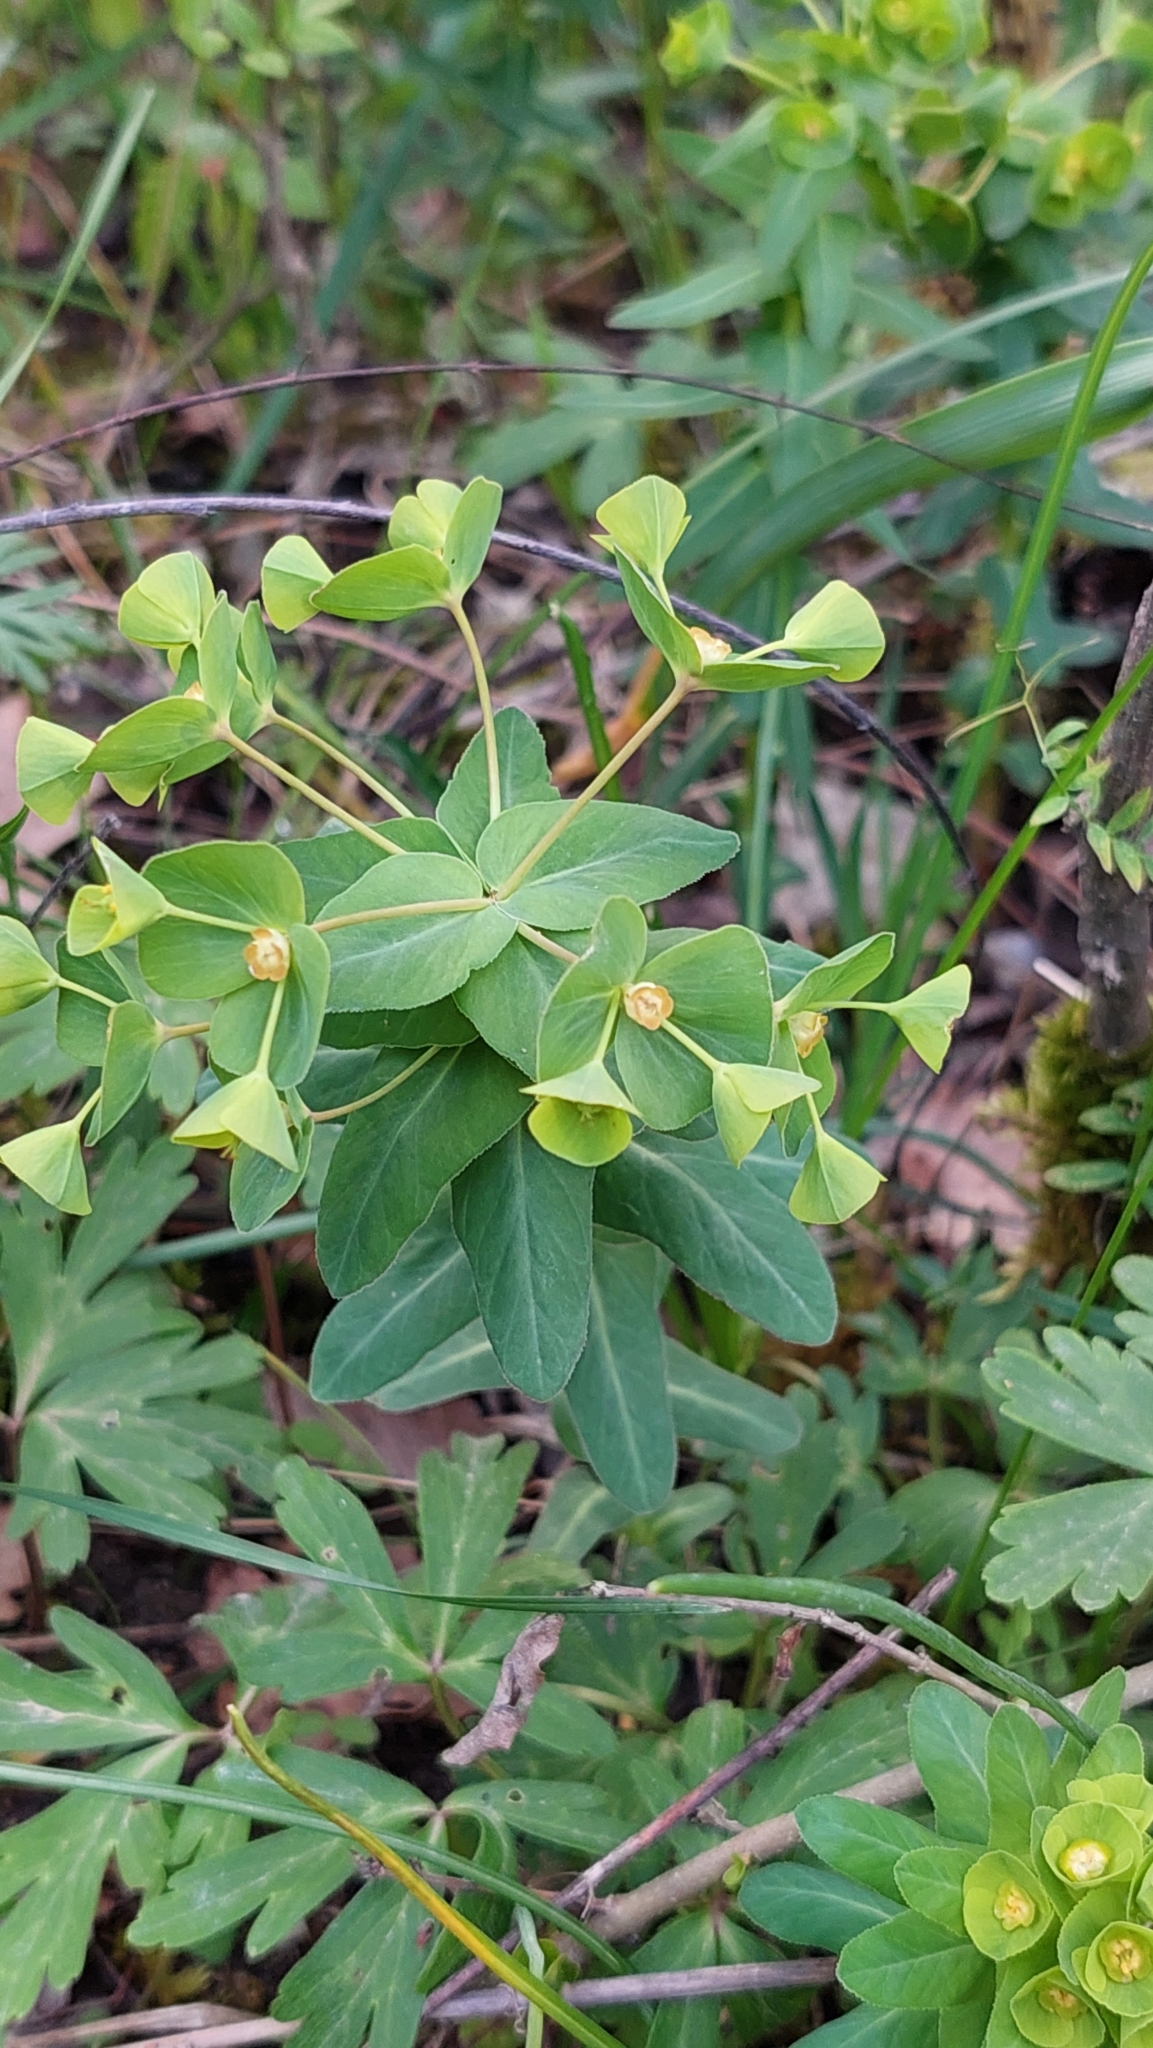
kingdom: Plantae
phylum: Tracheophyta
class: Magnoliopsida
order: Malpighiales
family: Euphorbiaceae
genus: Euphorbia
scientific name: Euphorbia condylocarpa
